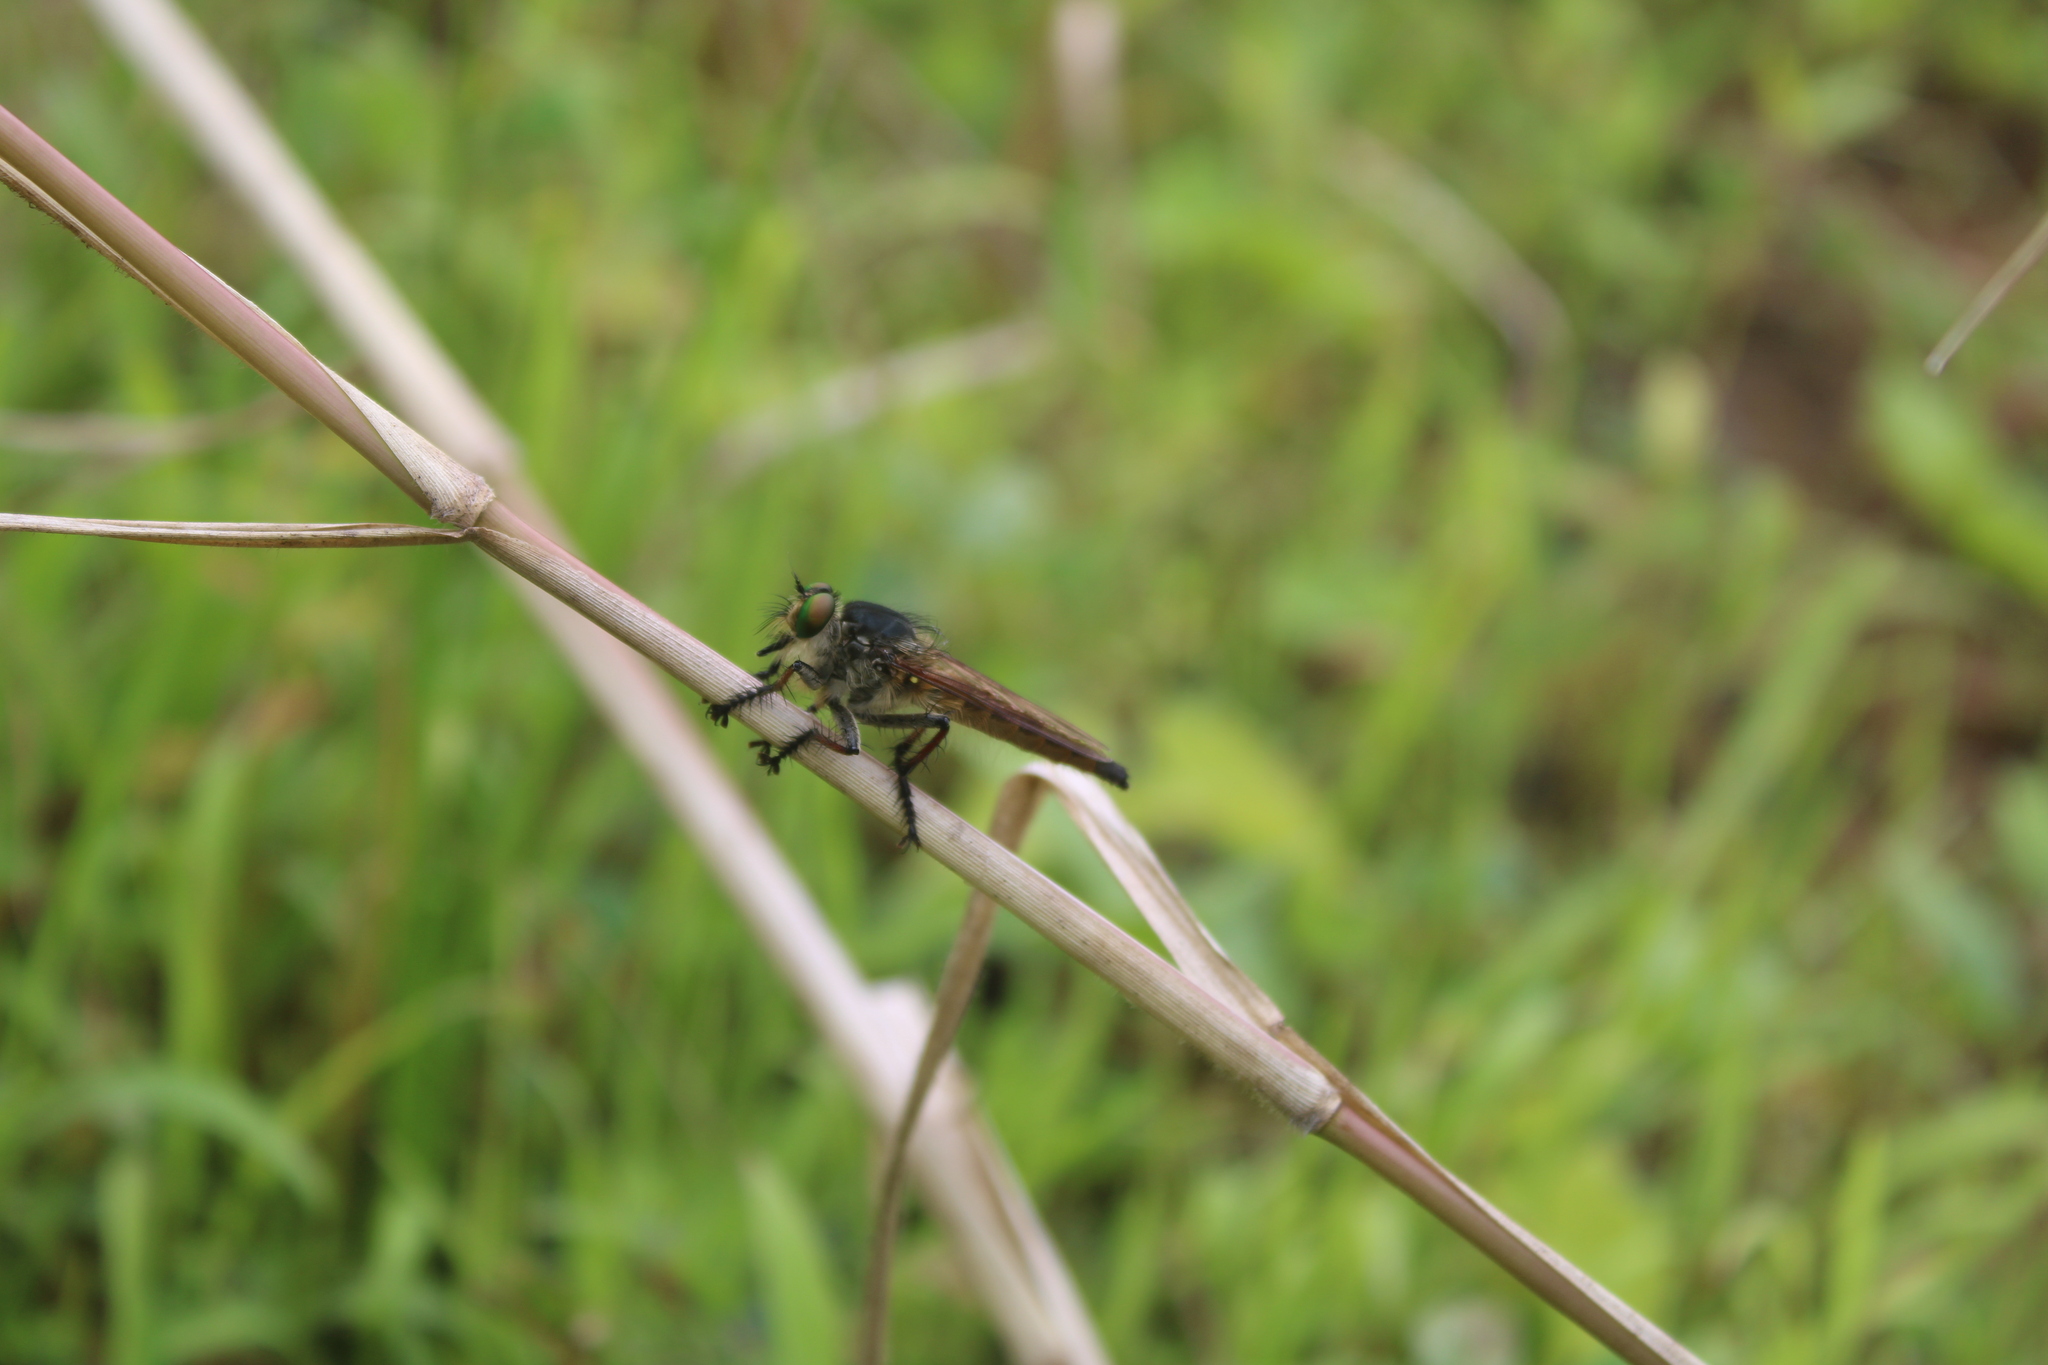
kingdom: Animalia
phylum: Arthropoda
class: Insecta
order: Diptera
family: Asilidae
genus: Promachus
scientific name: Promachus graeffi
